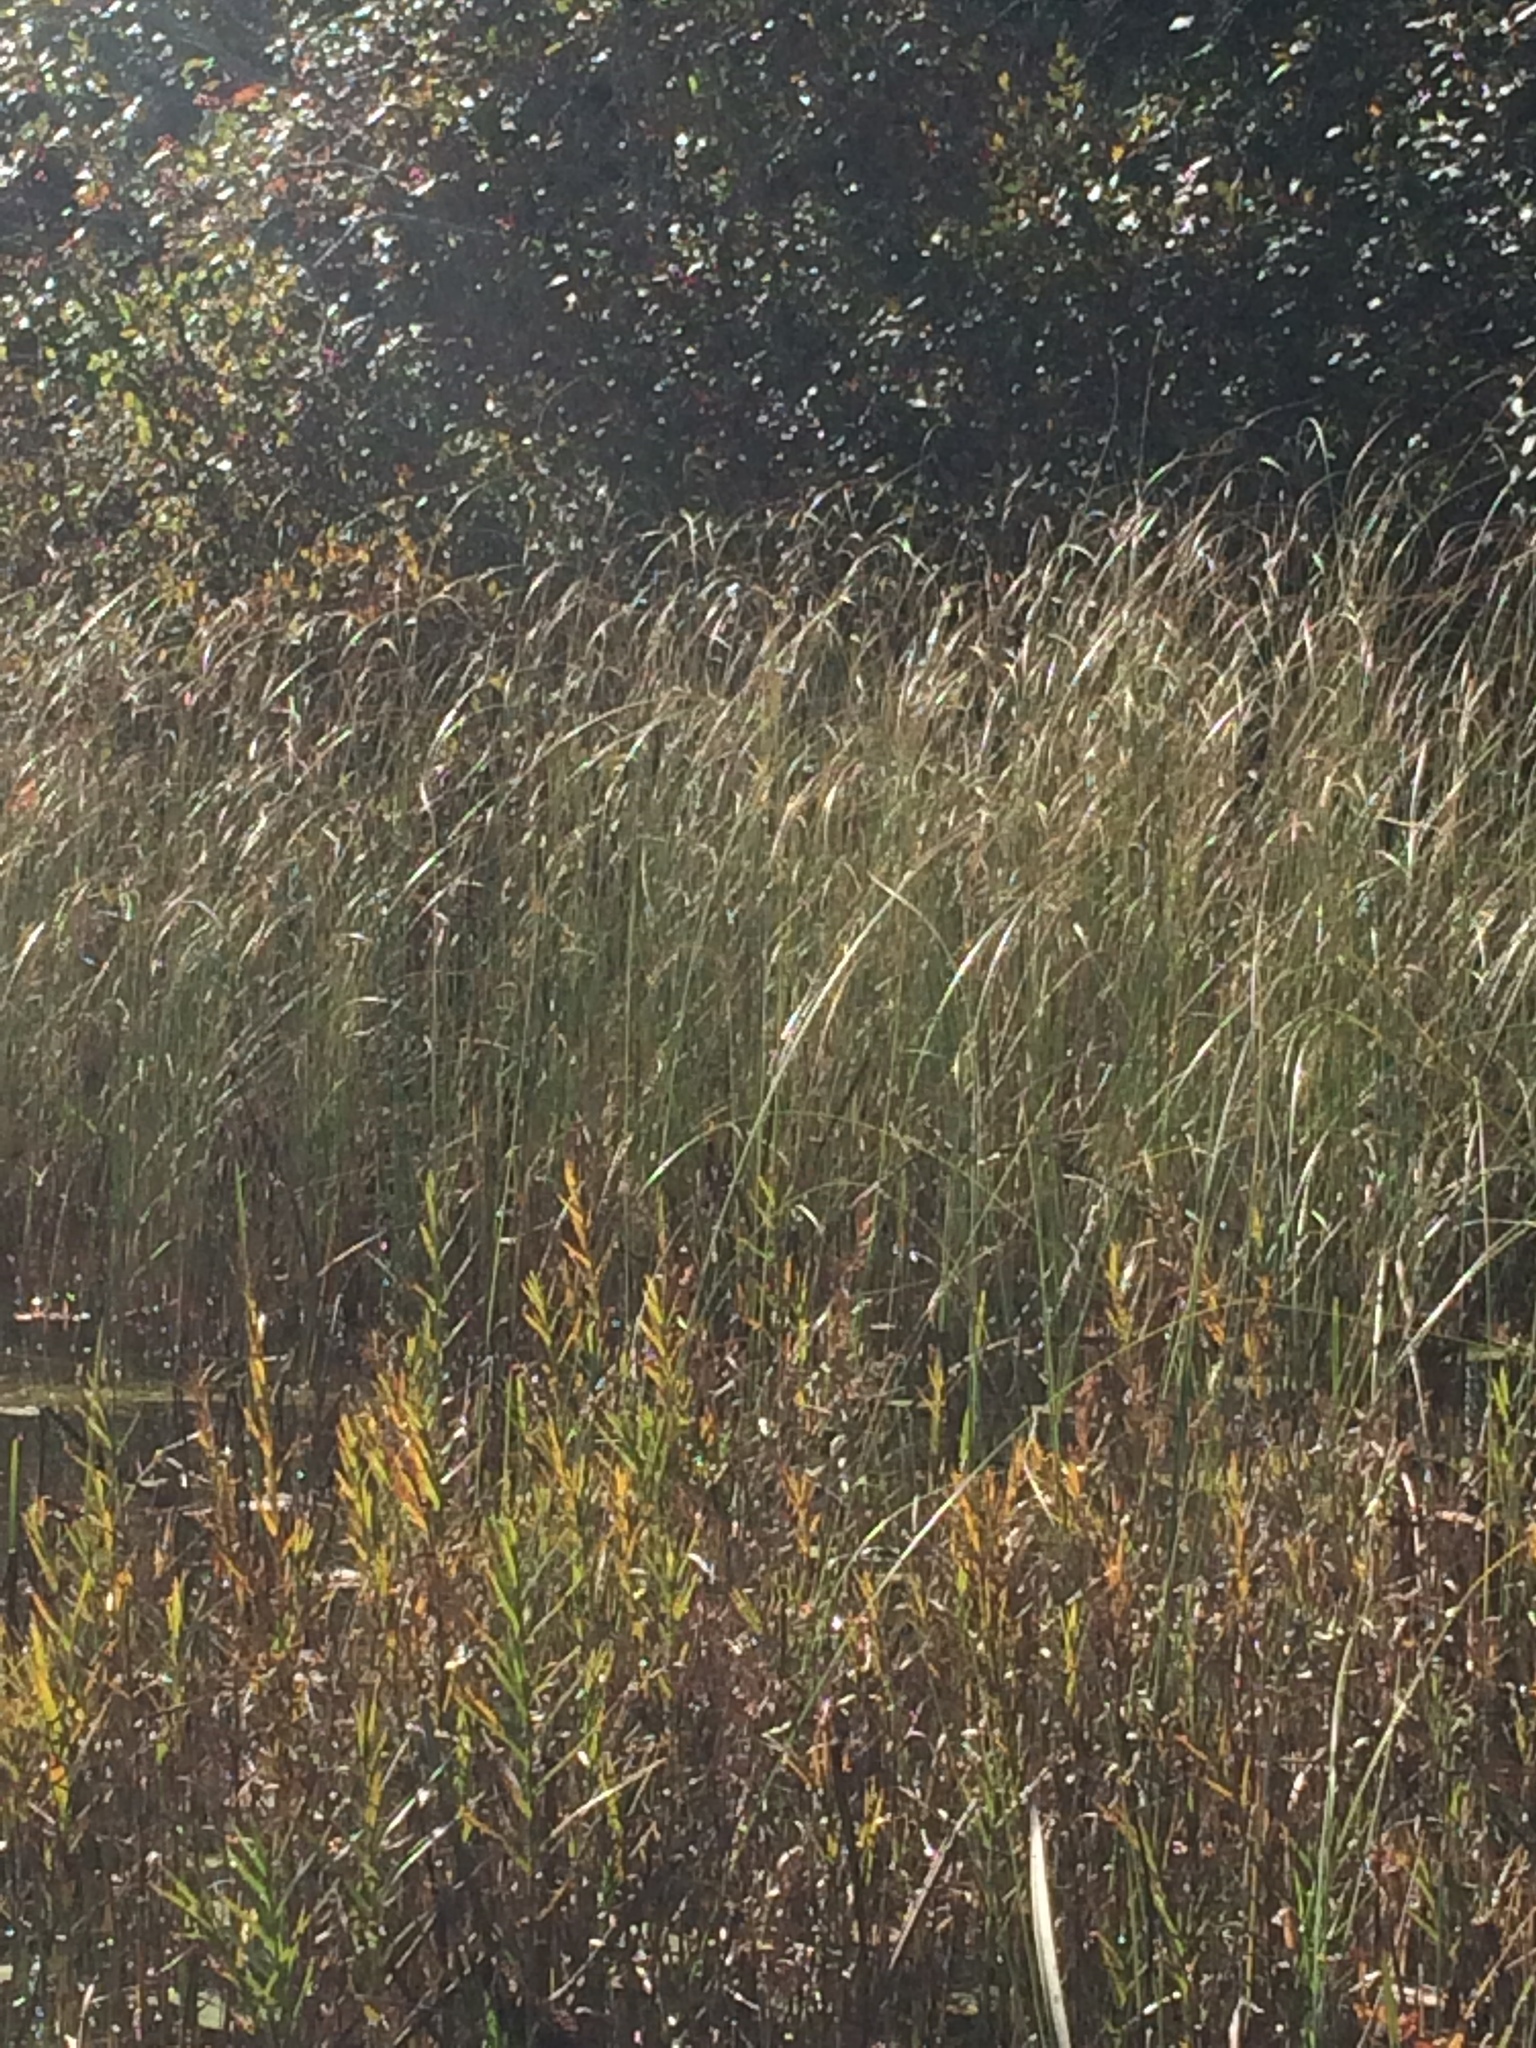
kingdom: Plantae
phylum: Tracheophyta
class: Liliopsida
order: Poales
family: Cyperaceae
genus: Carex
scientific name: Carex lasiocarpa
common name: Slender sedge
